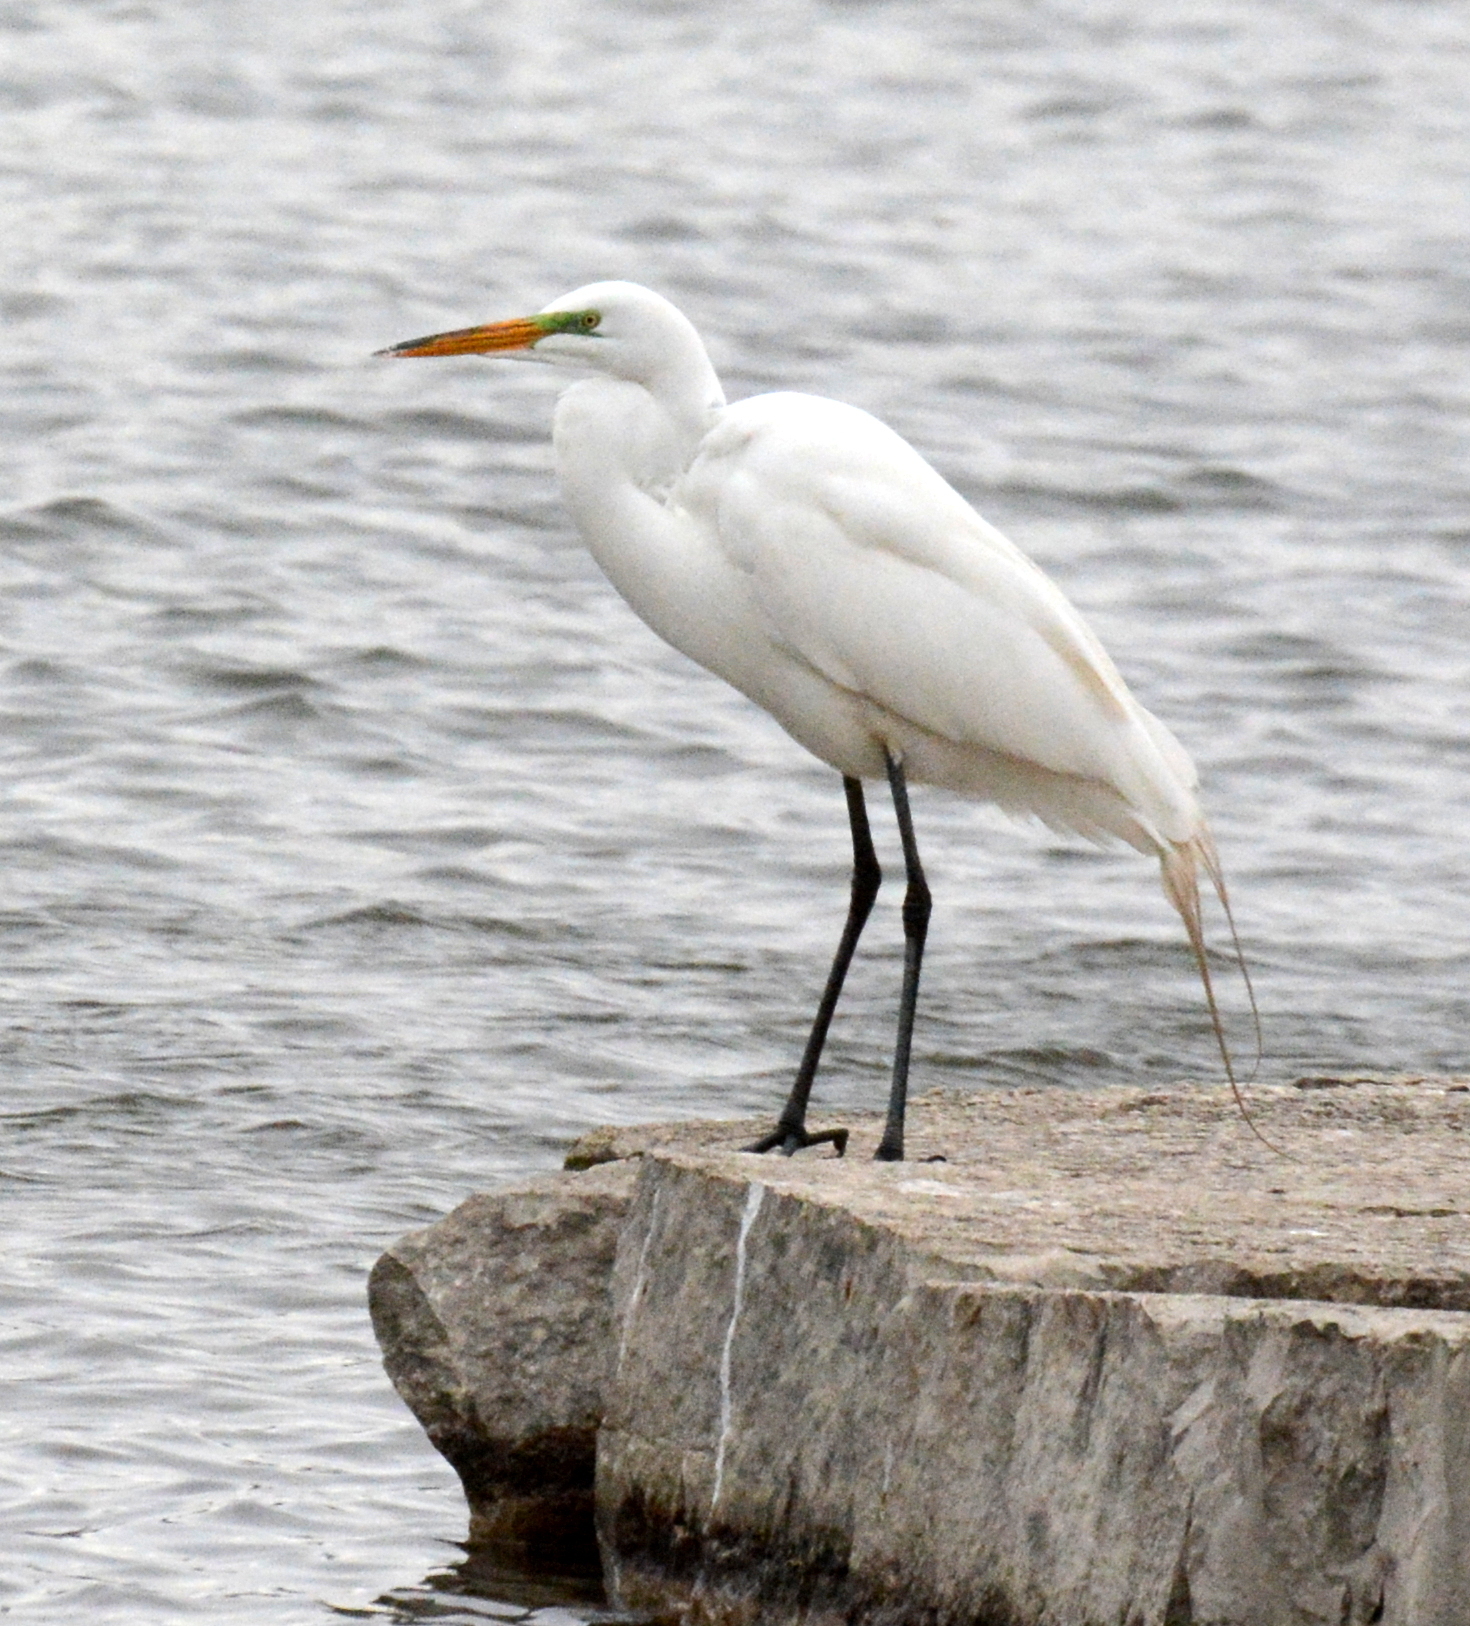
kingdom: Animalia
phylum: Chordata
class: Aves
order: Pelecaniformes
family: Ardeidae
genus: Ardea
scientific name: Ardea alba
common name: Great egret
